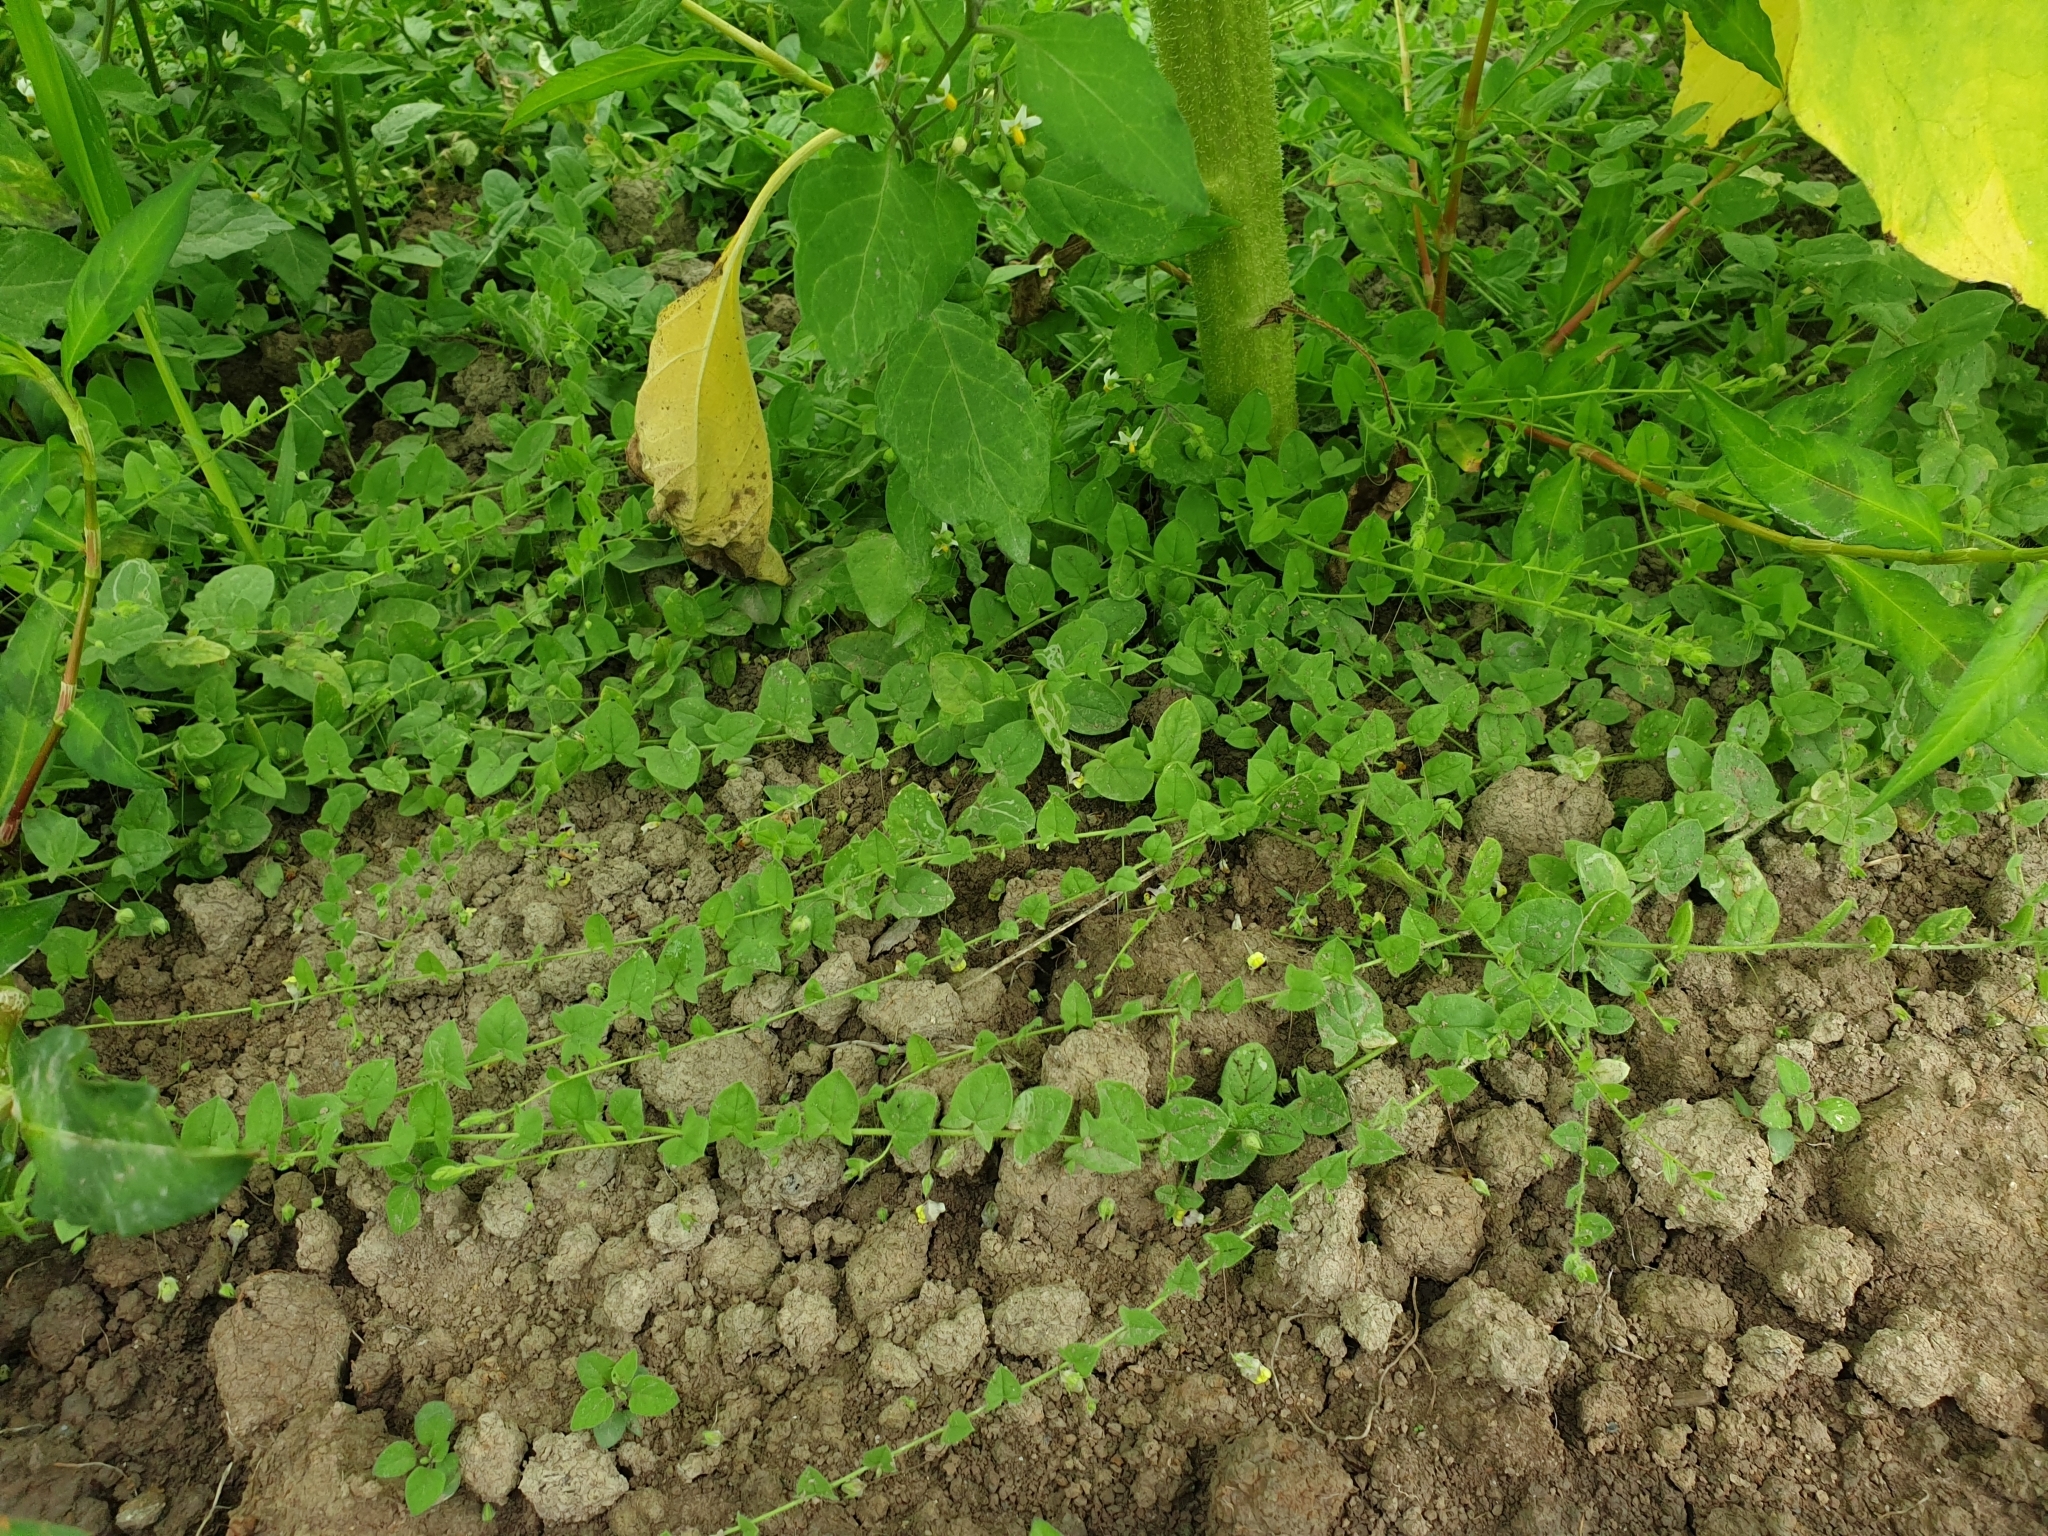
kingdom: Plantae
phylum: Tracheophyta
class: Magnoliopsida
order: Lamiales
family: Plantaginaceae
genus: Kickxia
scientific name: Kickxia elatine
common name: Sharp-leaved fluellen
